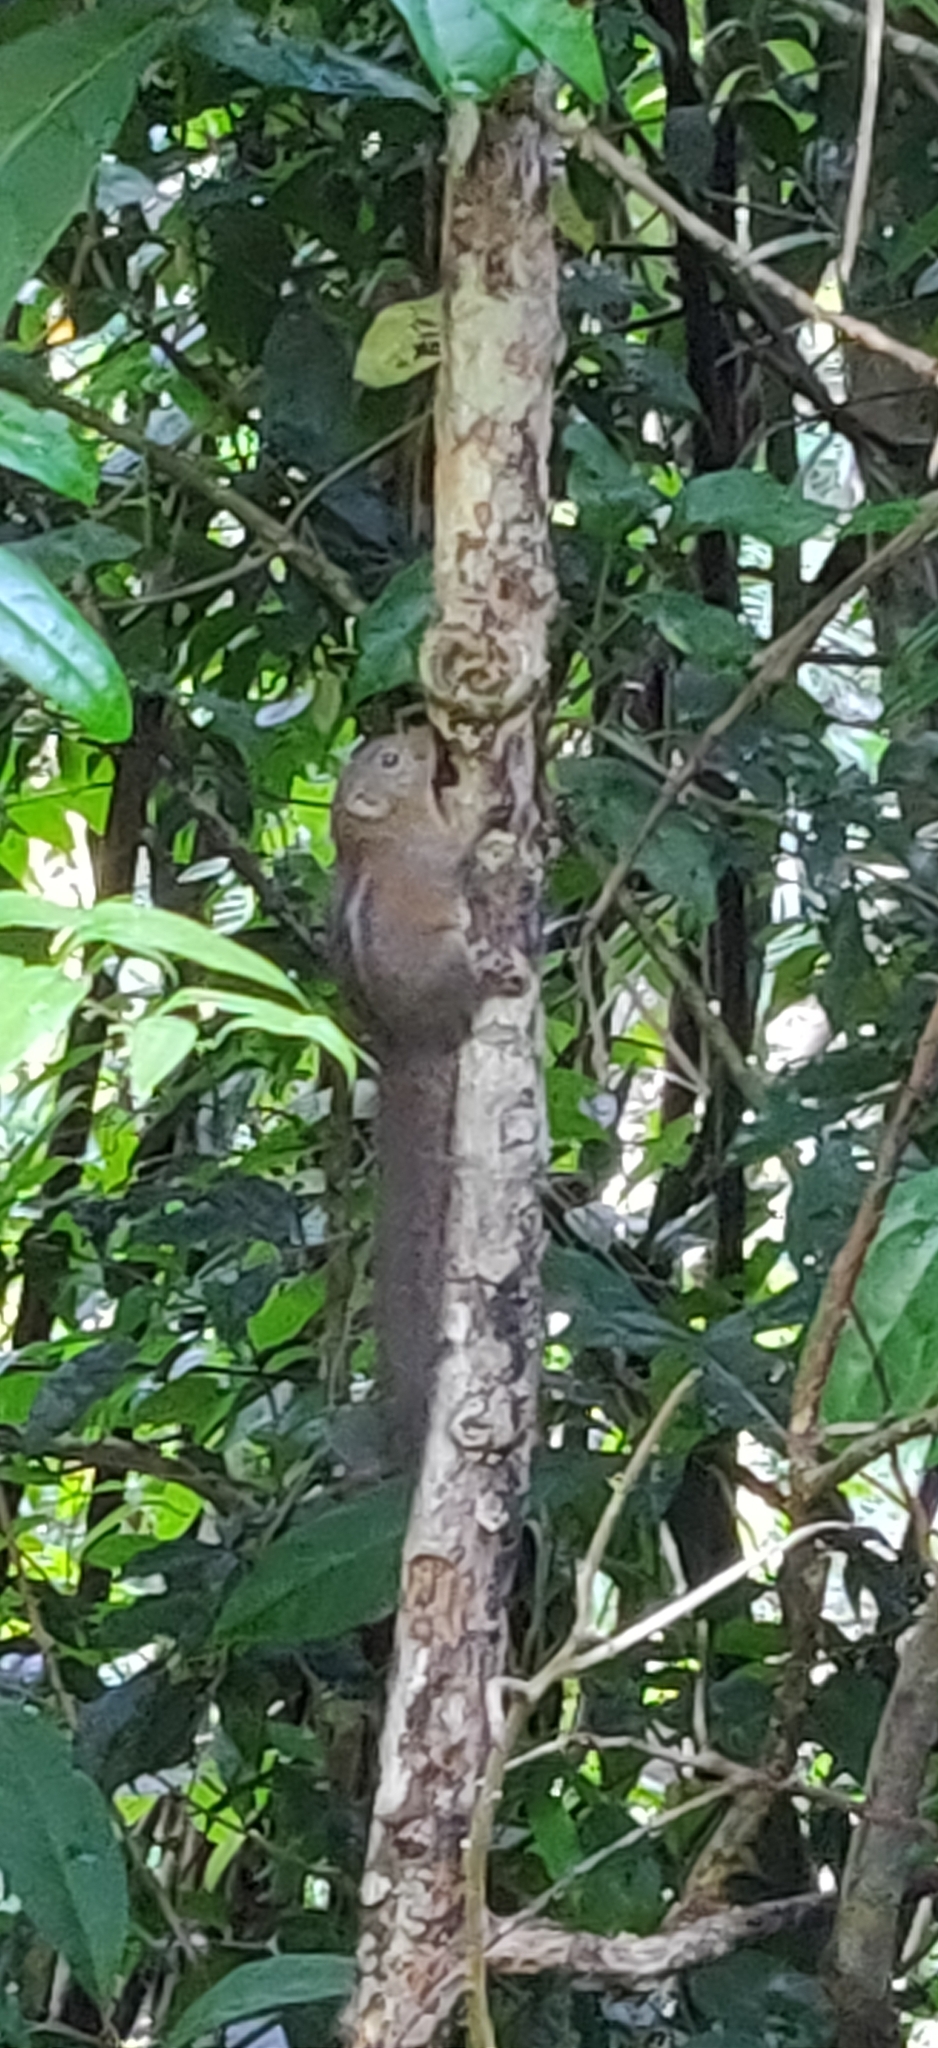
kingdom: Animalia
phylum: Chordata
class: Mammalia
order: Rodentia
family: Sciuridae
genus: Funambulus
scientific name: Funambulus sublineatus
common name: Dusky palm squirrel
